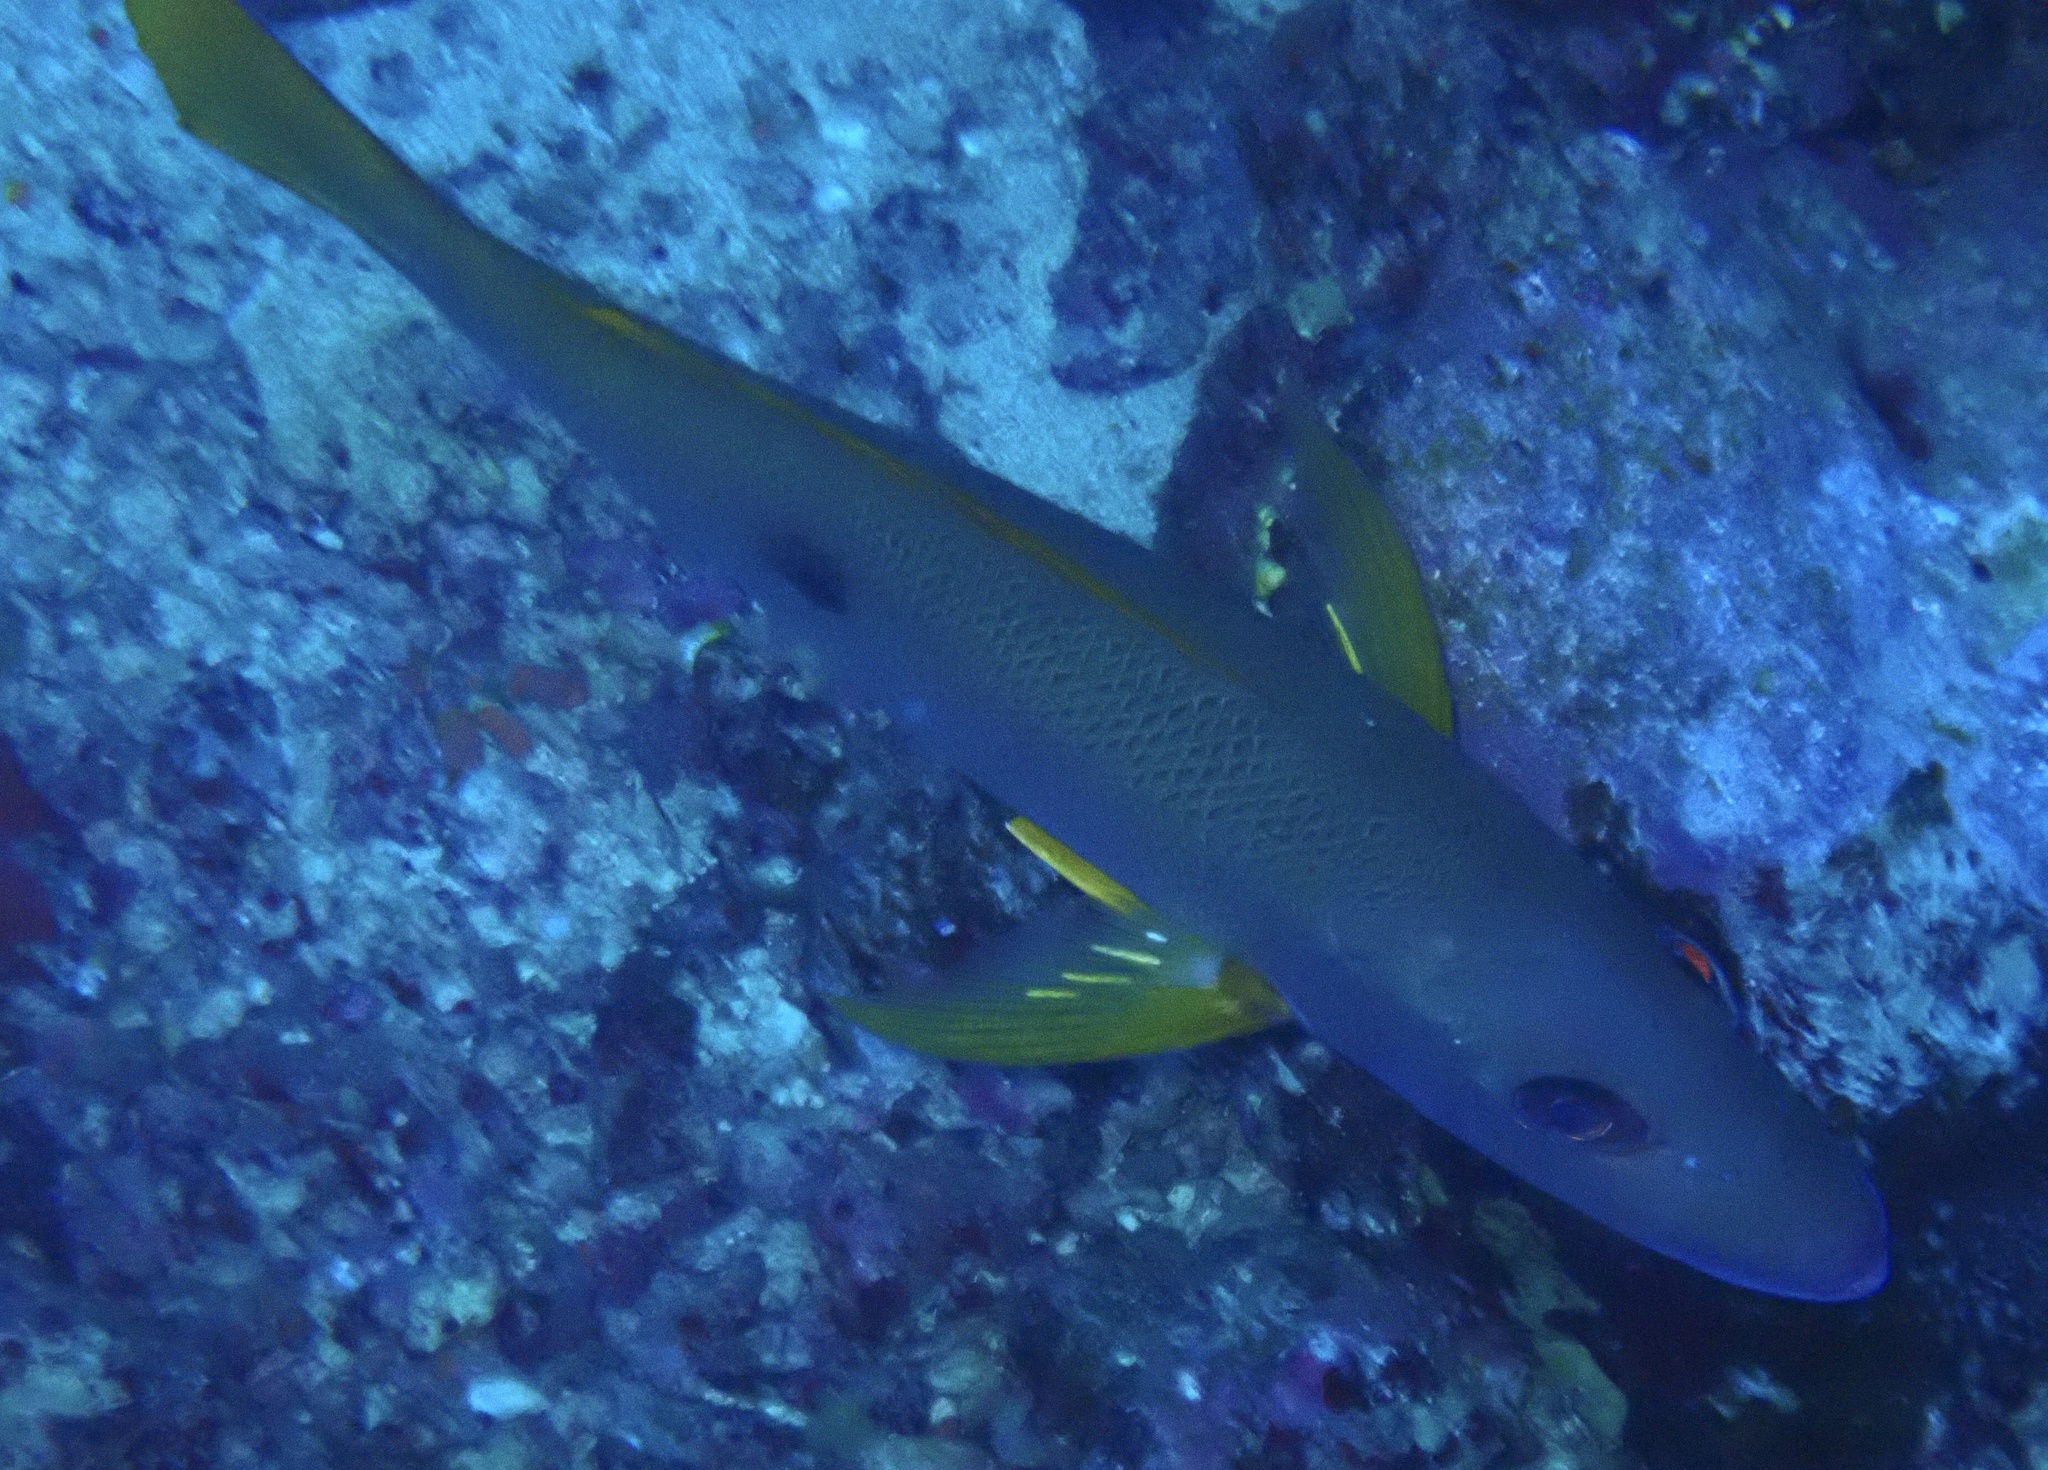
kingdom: Animalia
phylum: Chordata
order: Perciformes
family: Lutjanidae
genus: Lutjanus
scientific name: Lutjanus monostigma
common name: Onespot snapper
